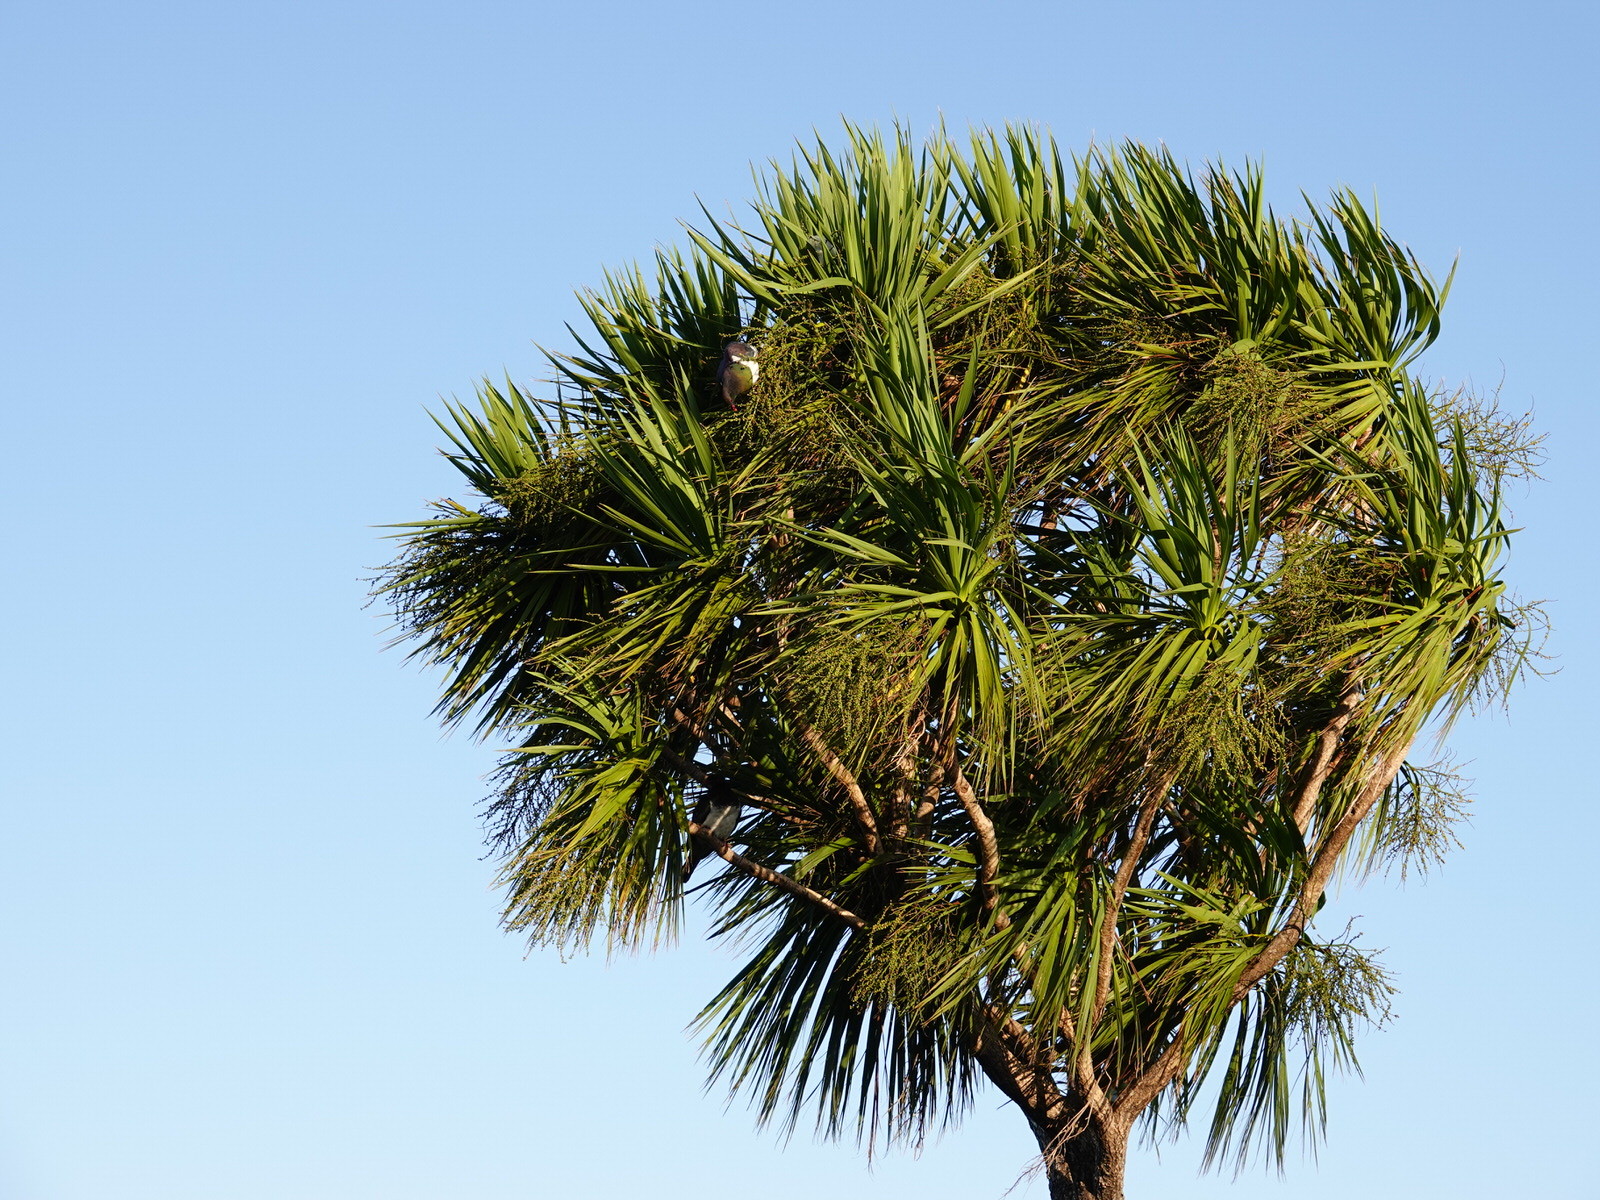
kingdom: Animalia
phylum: Chordata
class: Aves
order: Columbiformes
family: Columbidae
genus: Hemiphaga
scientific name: Hemiphaga novaeseelandiae
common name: New zealand pigeon
